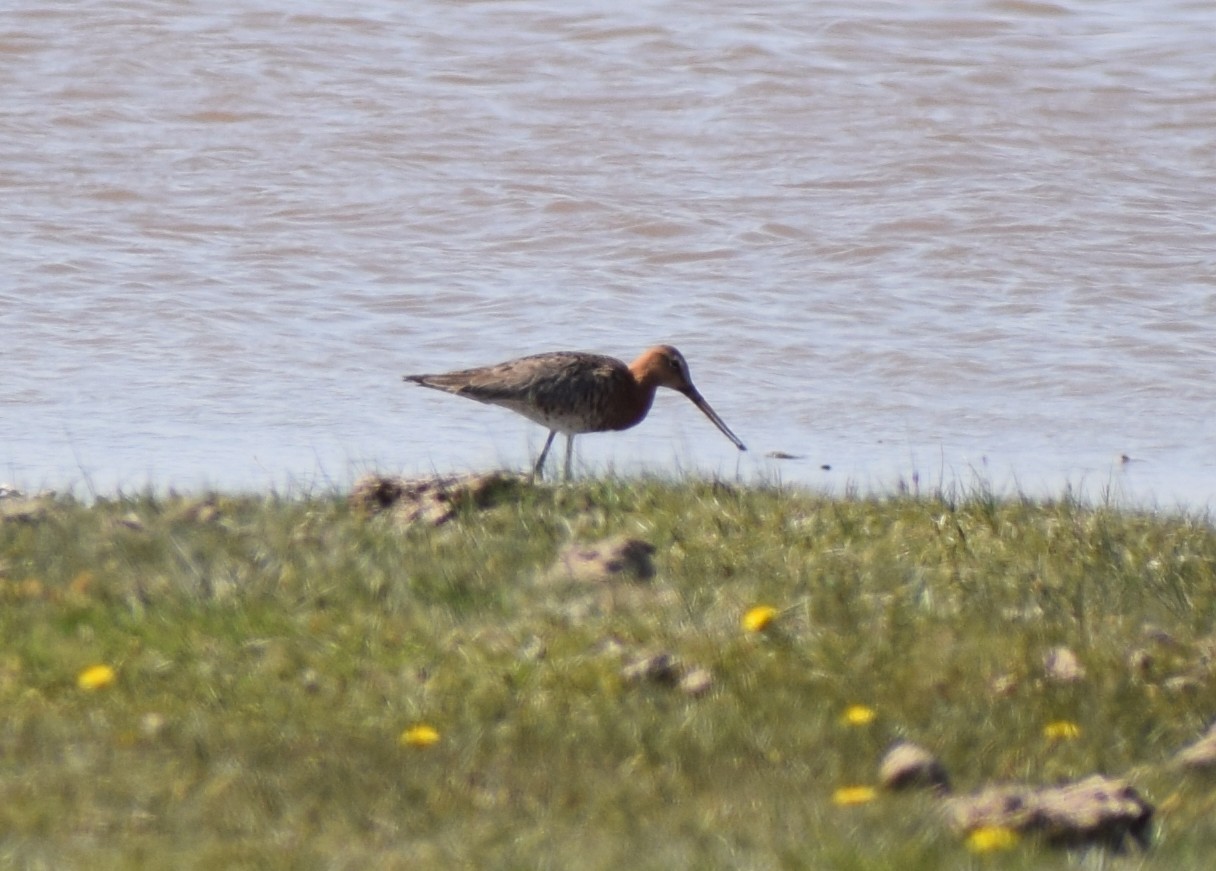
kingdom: Animalia
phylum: Chordata
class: Aves
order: Charadriiformes
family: Scolopacidae
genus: Limosa
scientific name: Limosa limosa
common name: Black-tailed godwit
